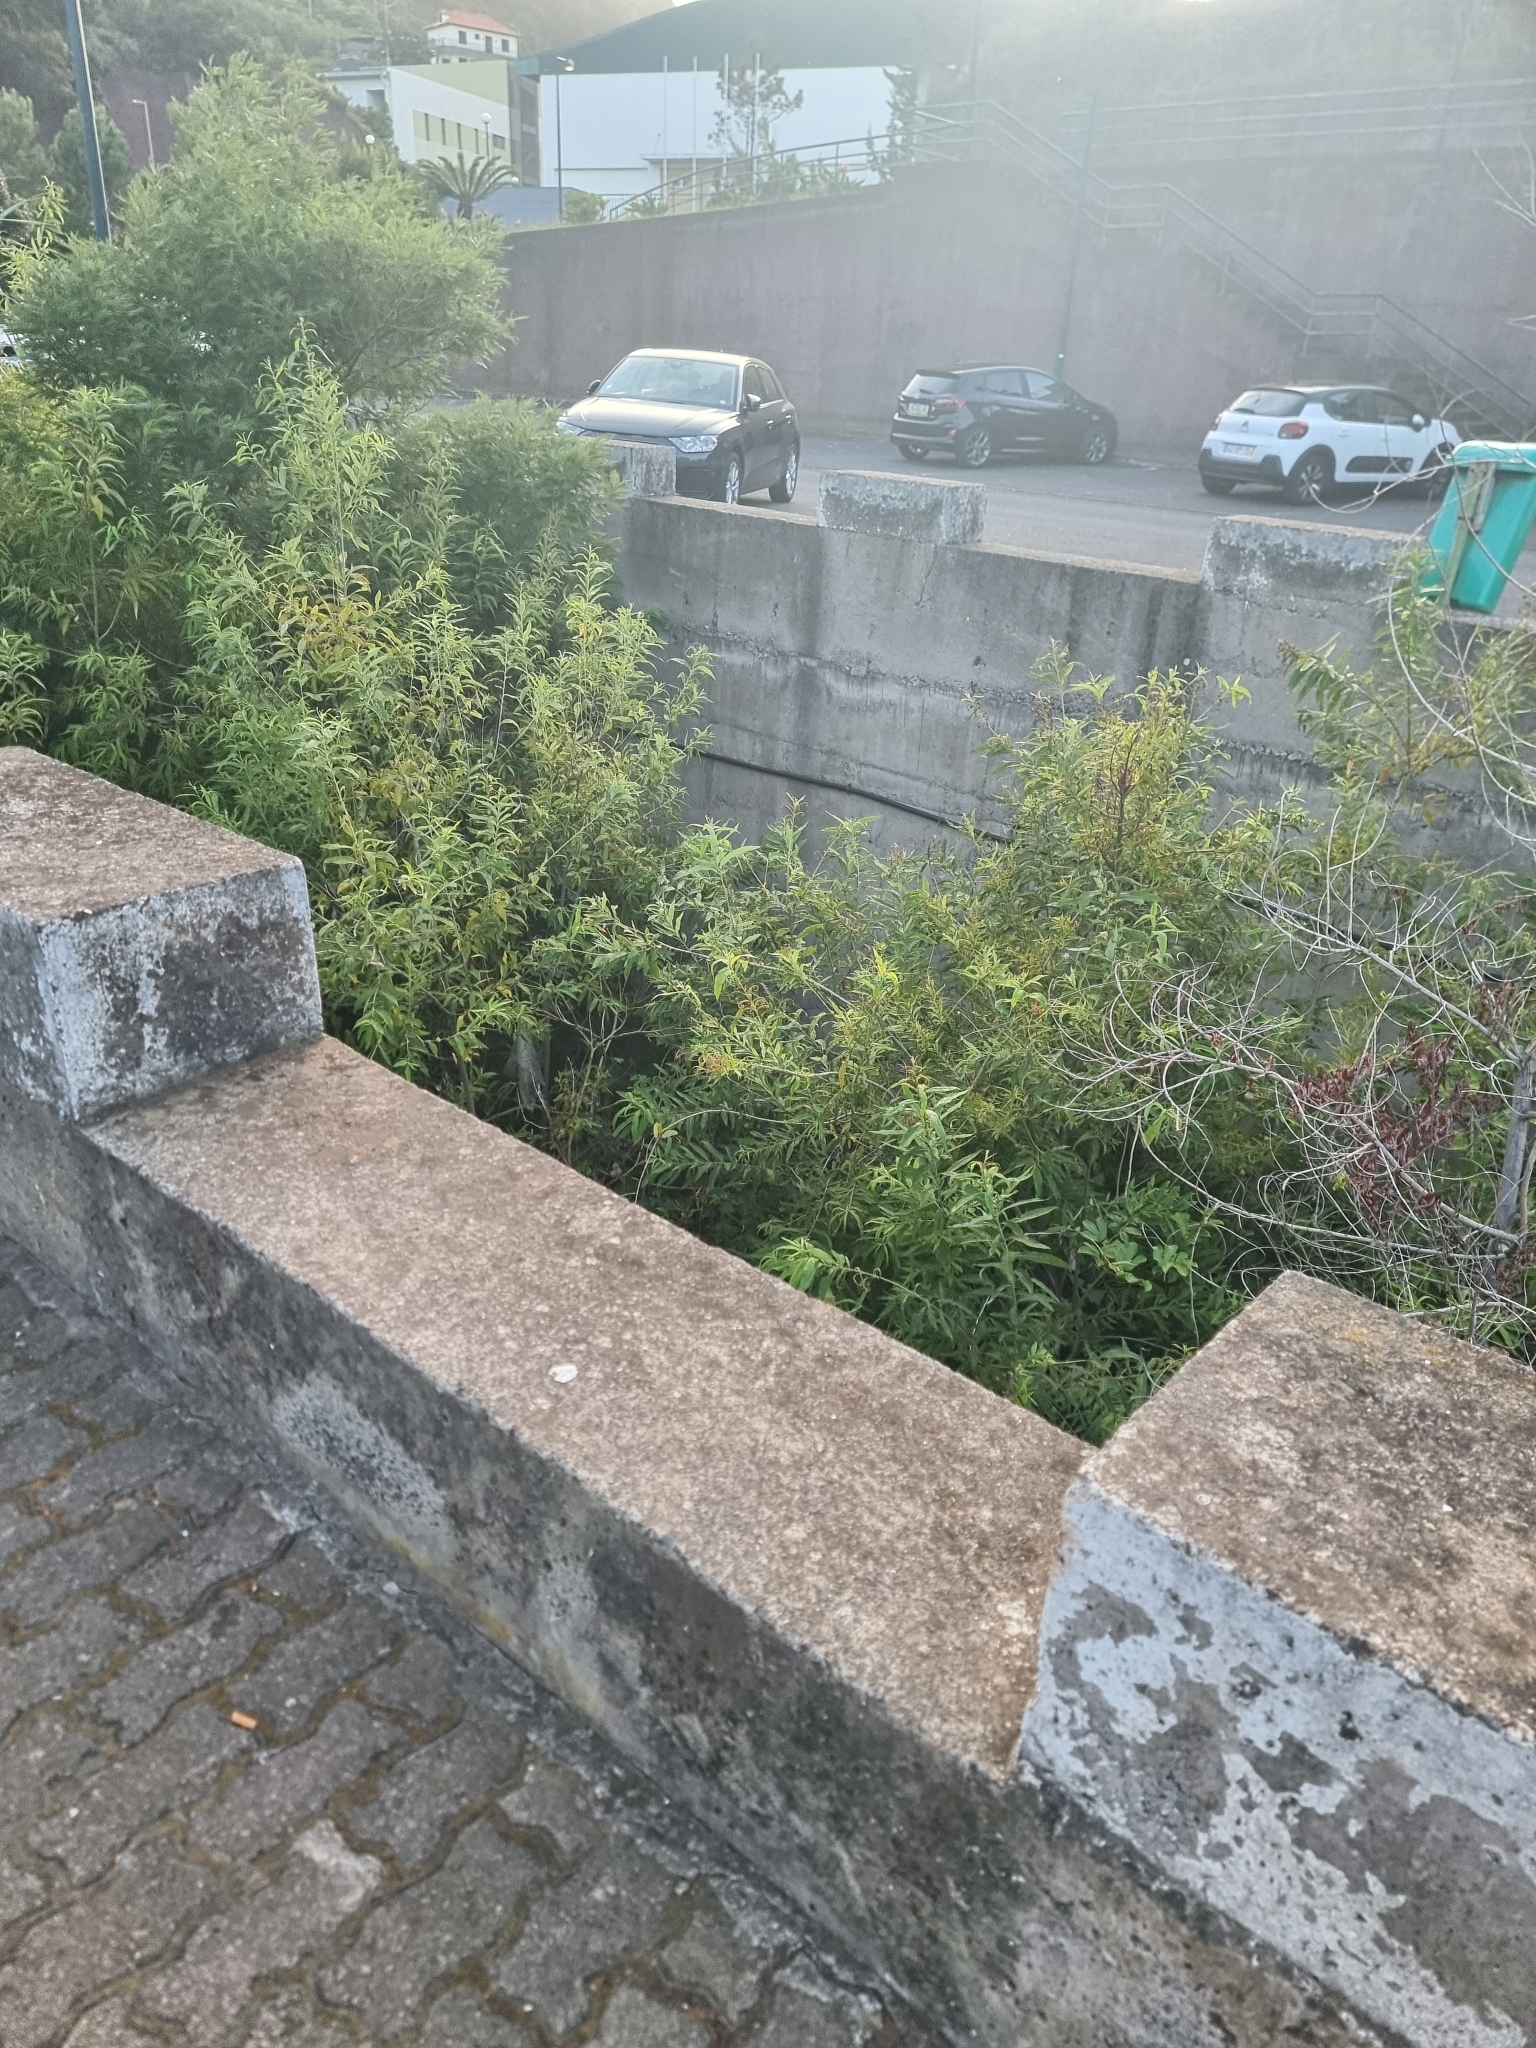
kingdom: Plantae
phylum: Tracheophyta
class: Magnoliopsida
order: Malpighiales
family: Salicaceae
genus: Salix
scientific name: Salix canariensis
